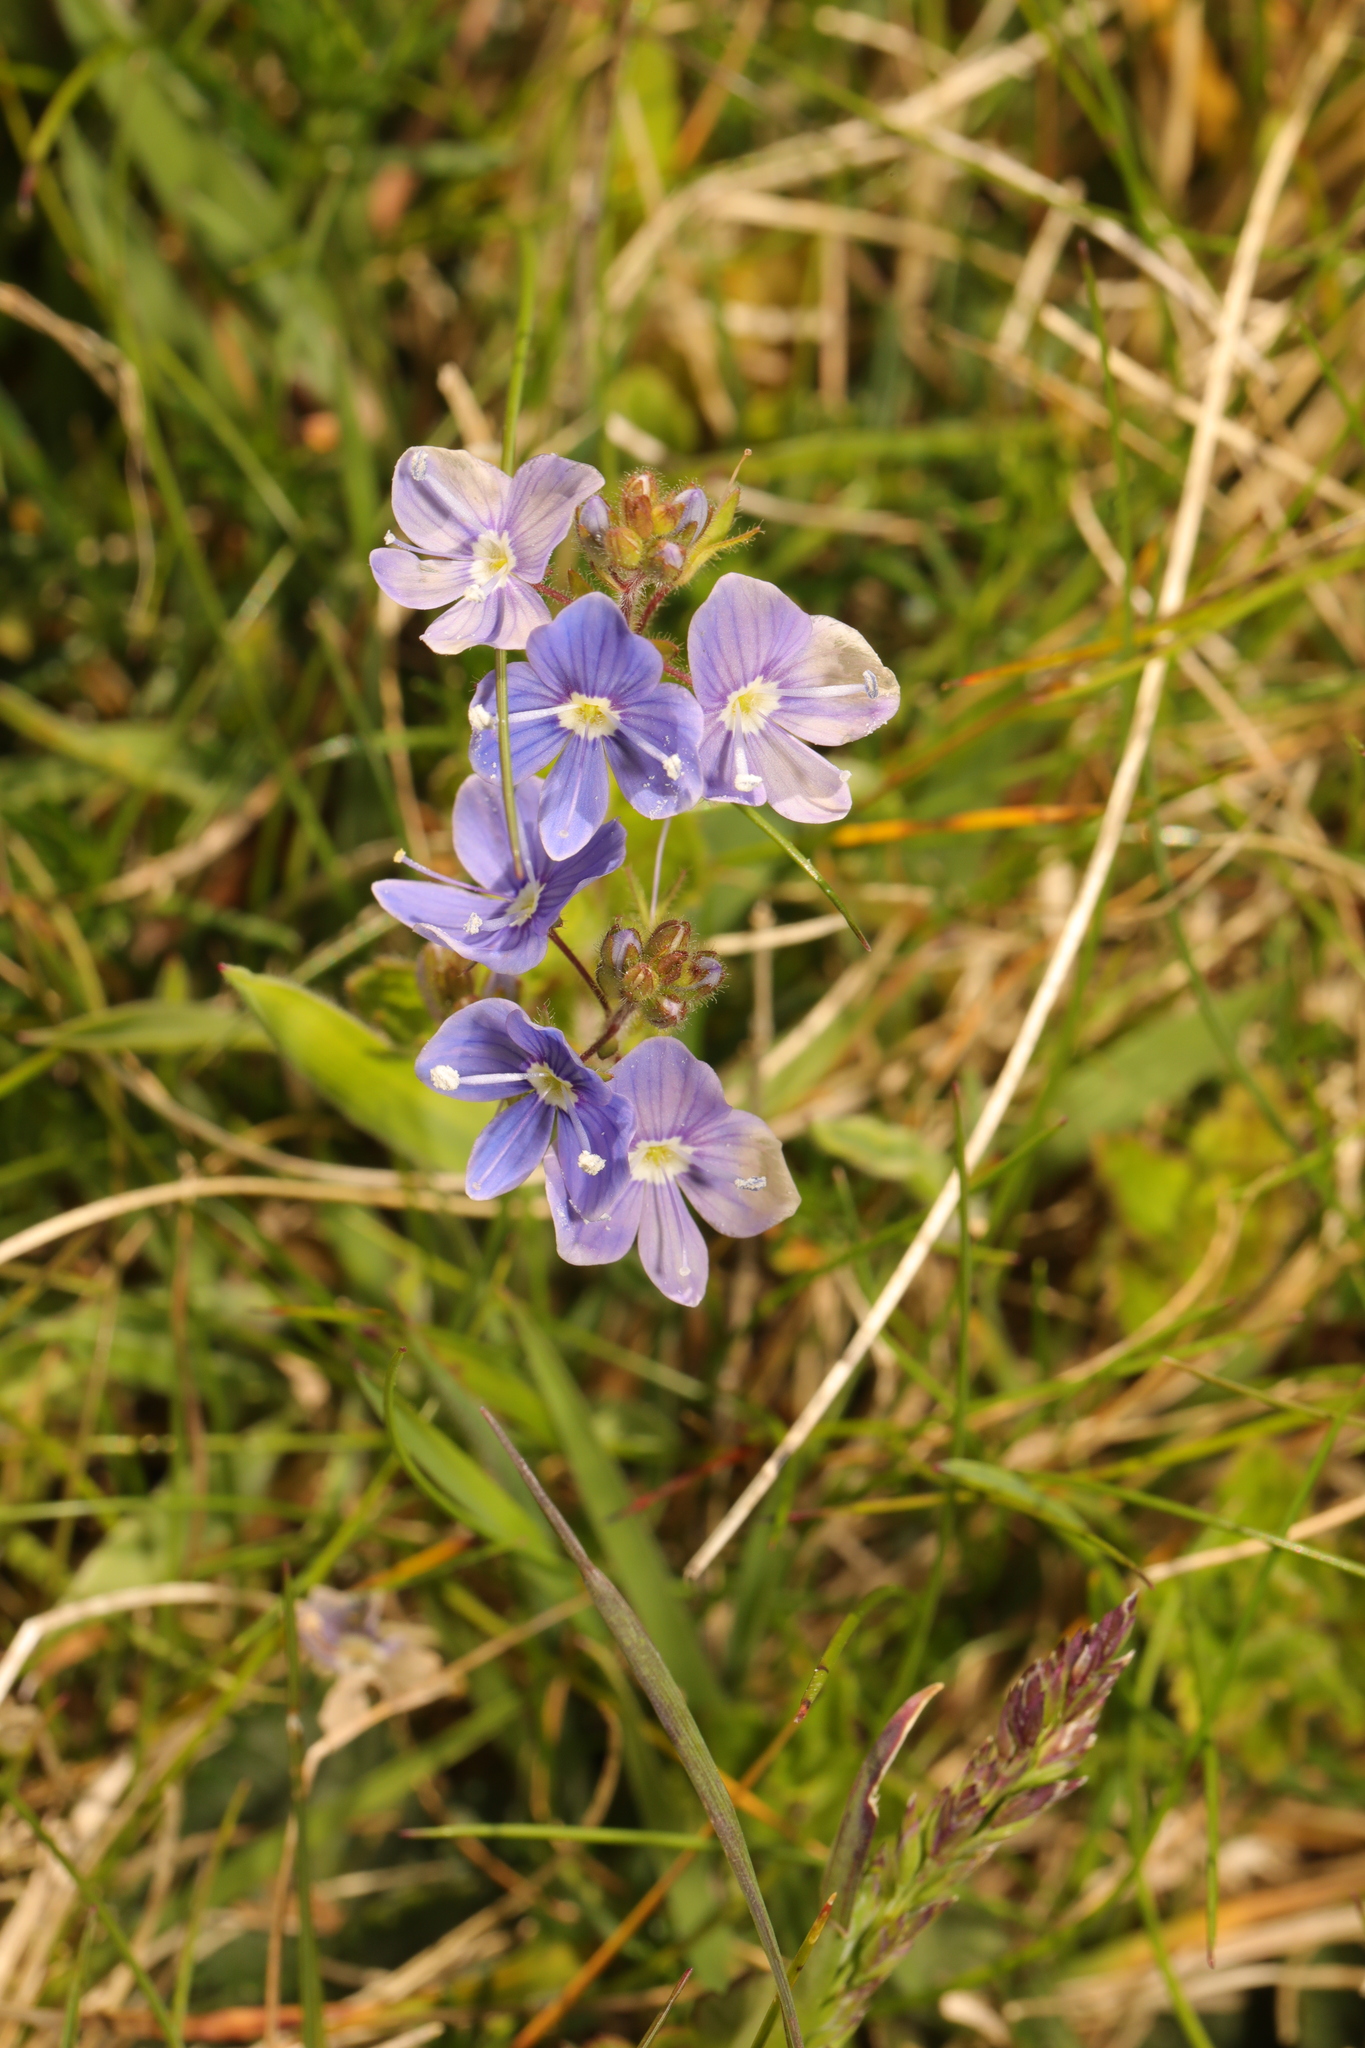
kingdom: Plantae
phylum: Tracheophyta
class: Magnoliopsida
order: Lamiales
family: Plantaginaceae
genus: Veronica
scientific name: Veronica chamaedrys
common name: Germander speedwell
